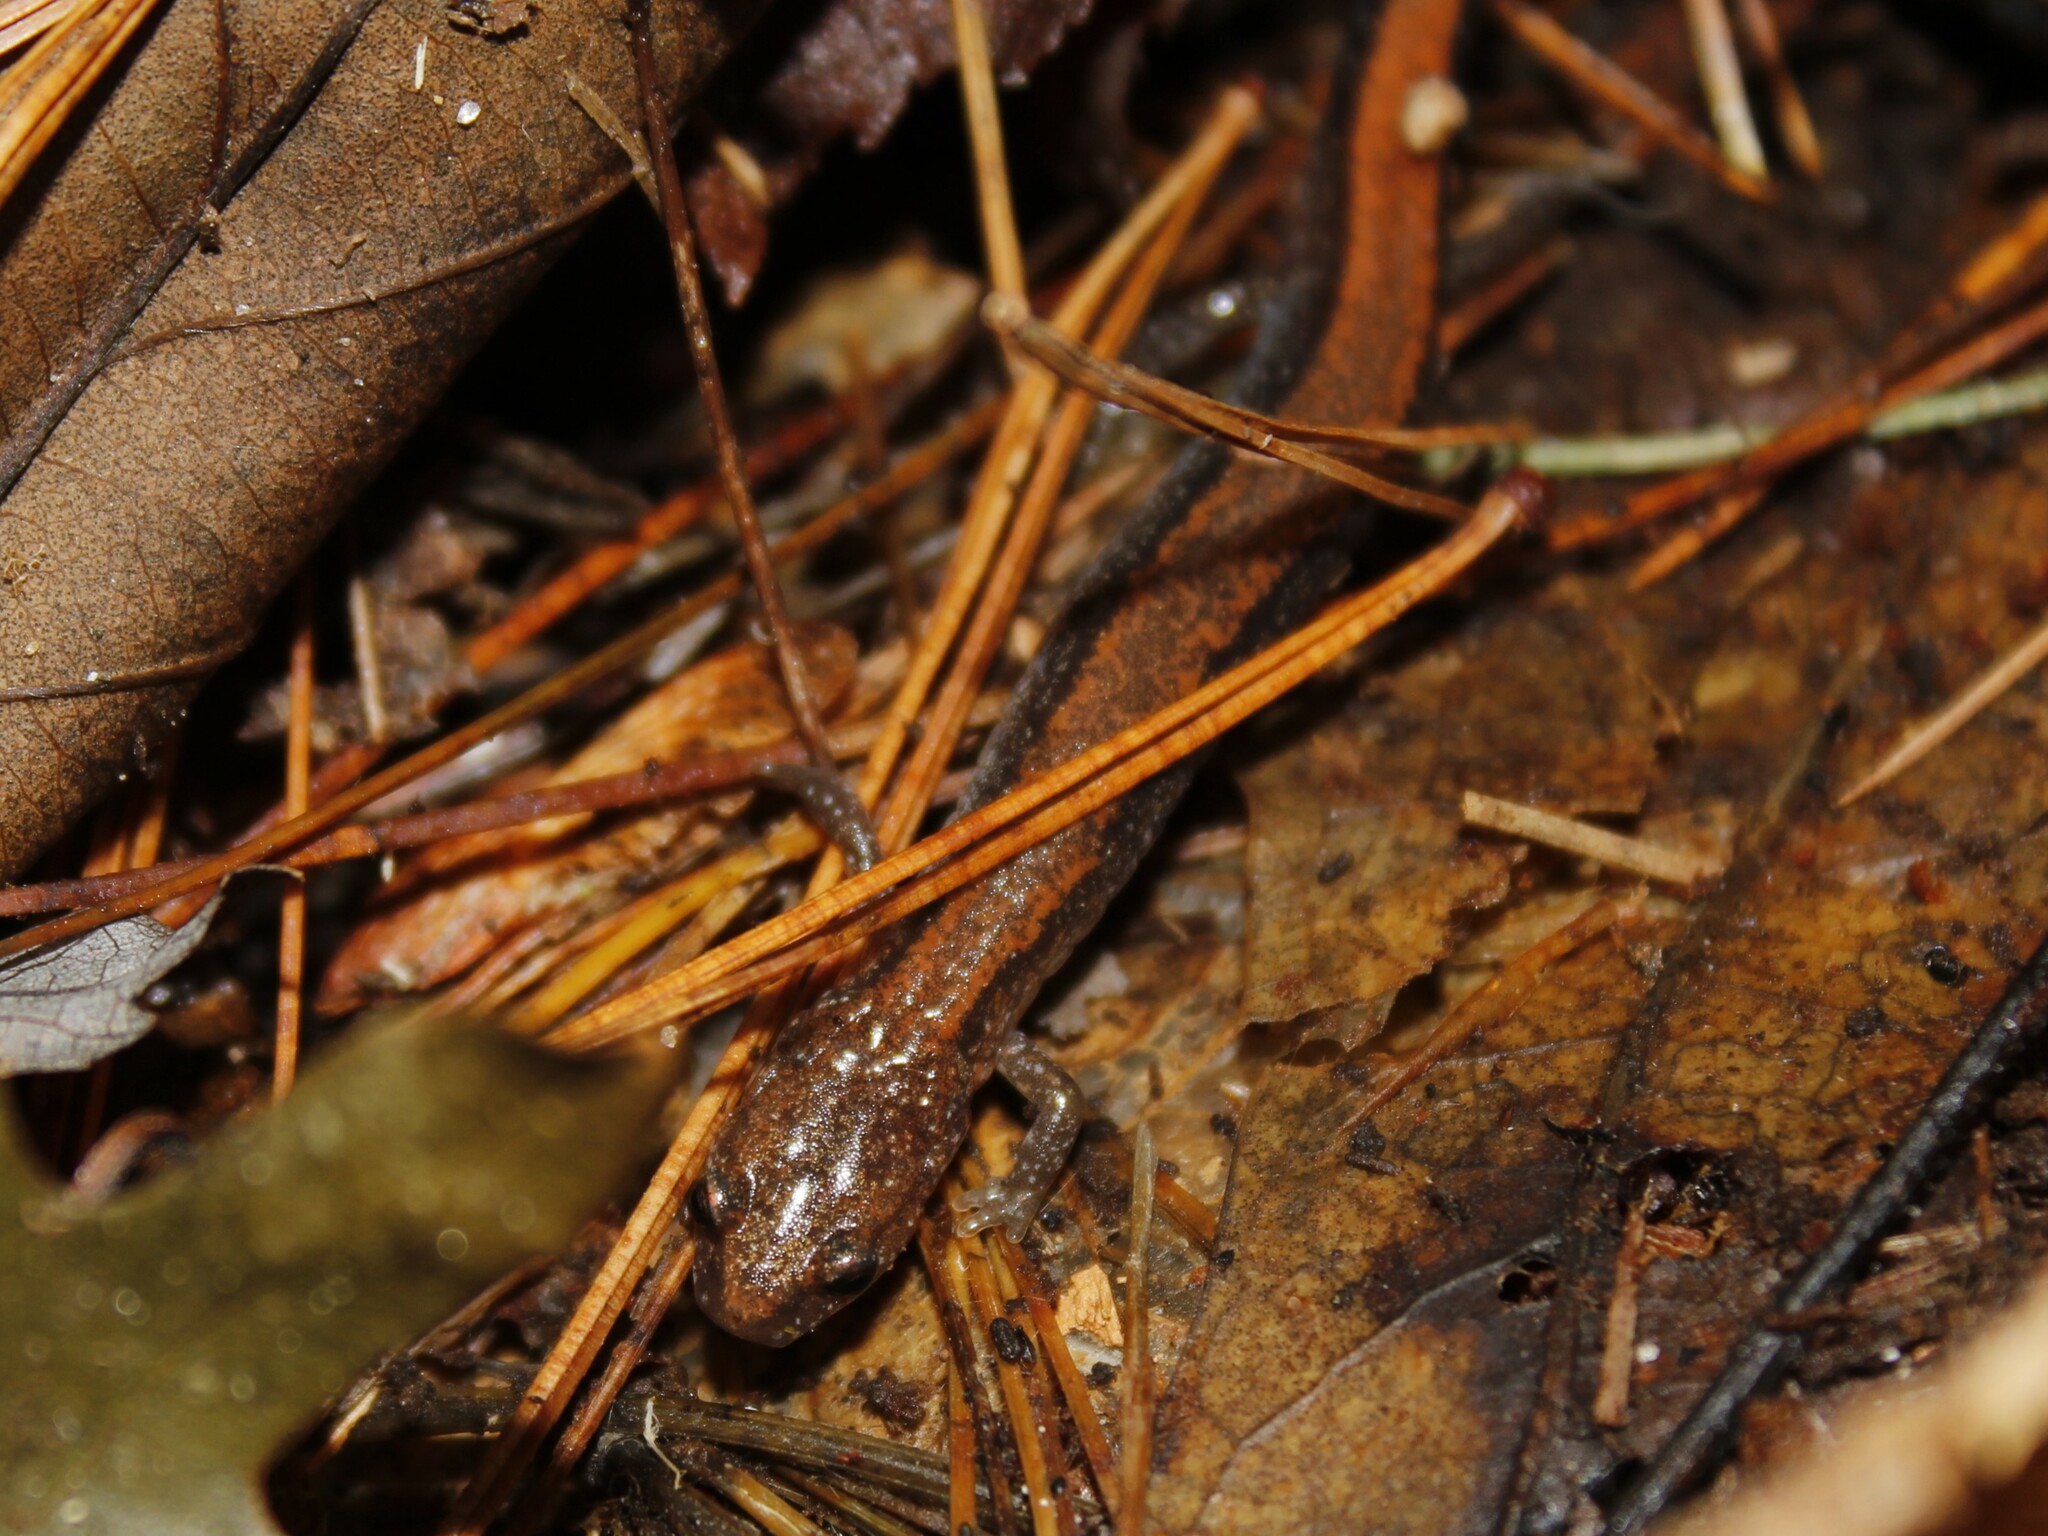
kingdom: Animalia
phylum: Chordata
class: Amphibia
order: Caudata
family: Plethodontidae
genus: Plethodon
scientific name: Plethodon cinereus
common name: Redback salamander
